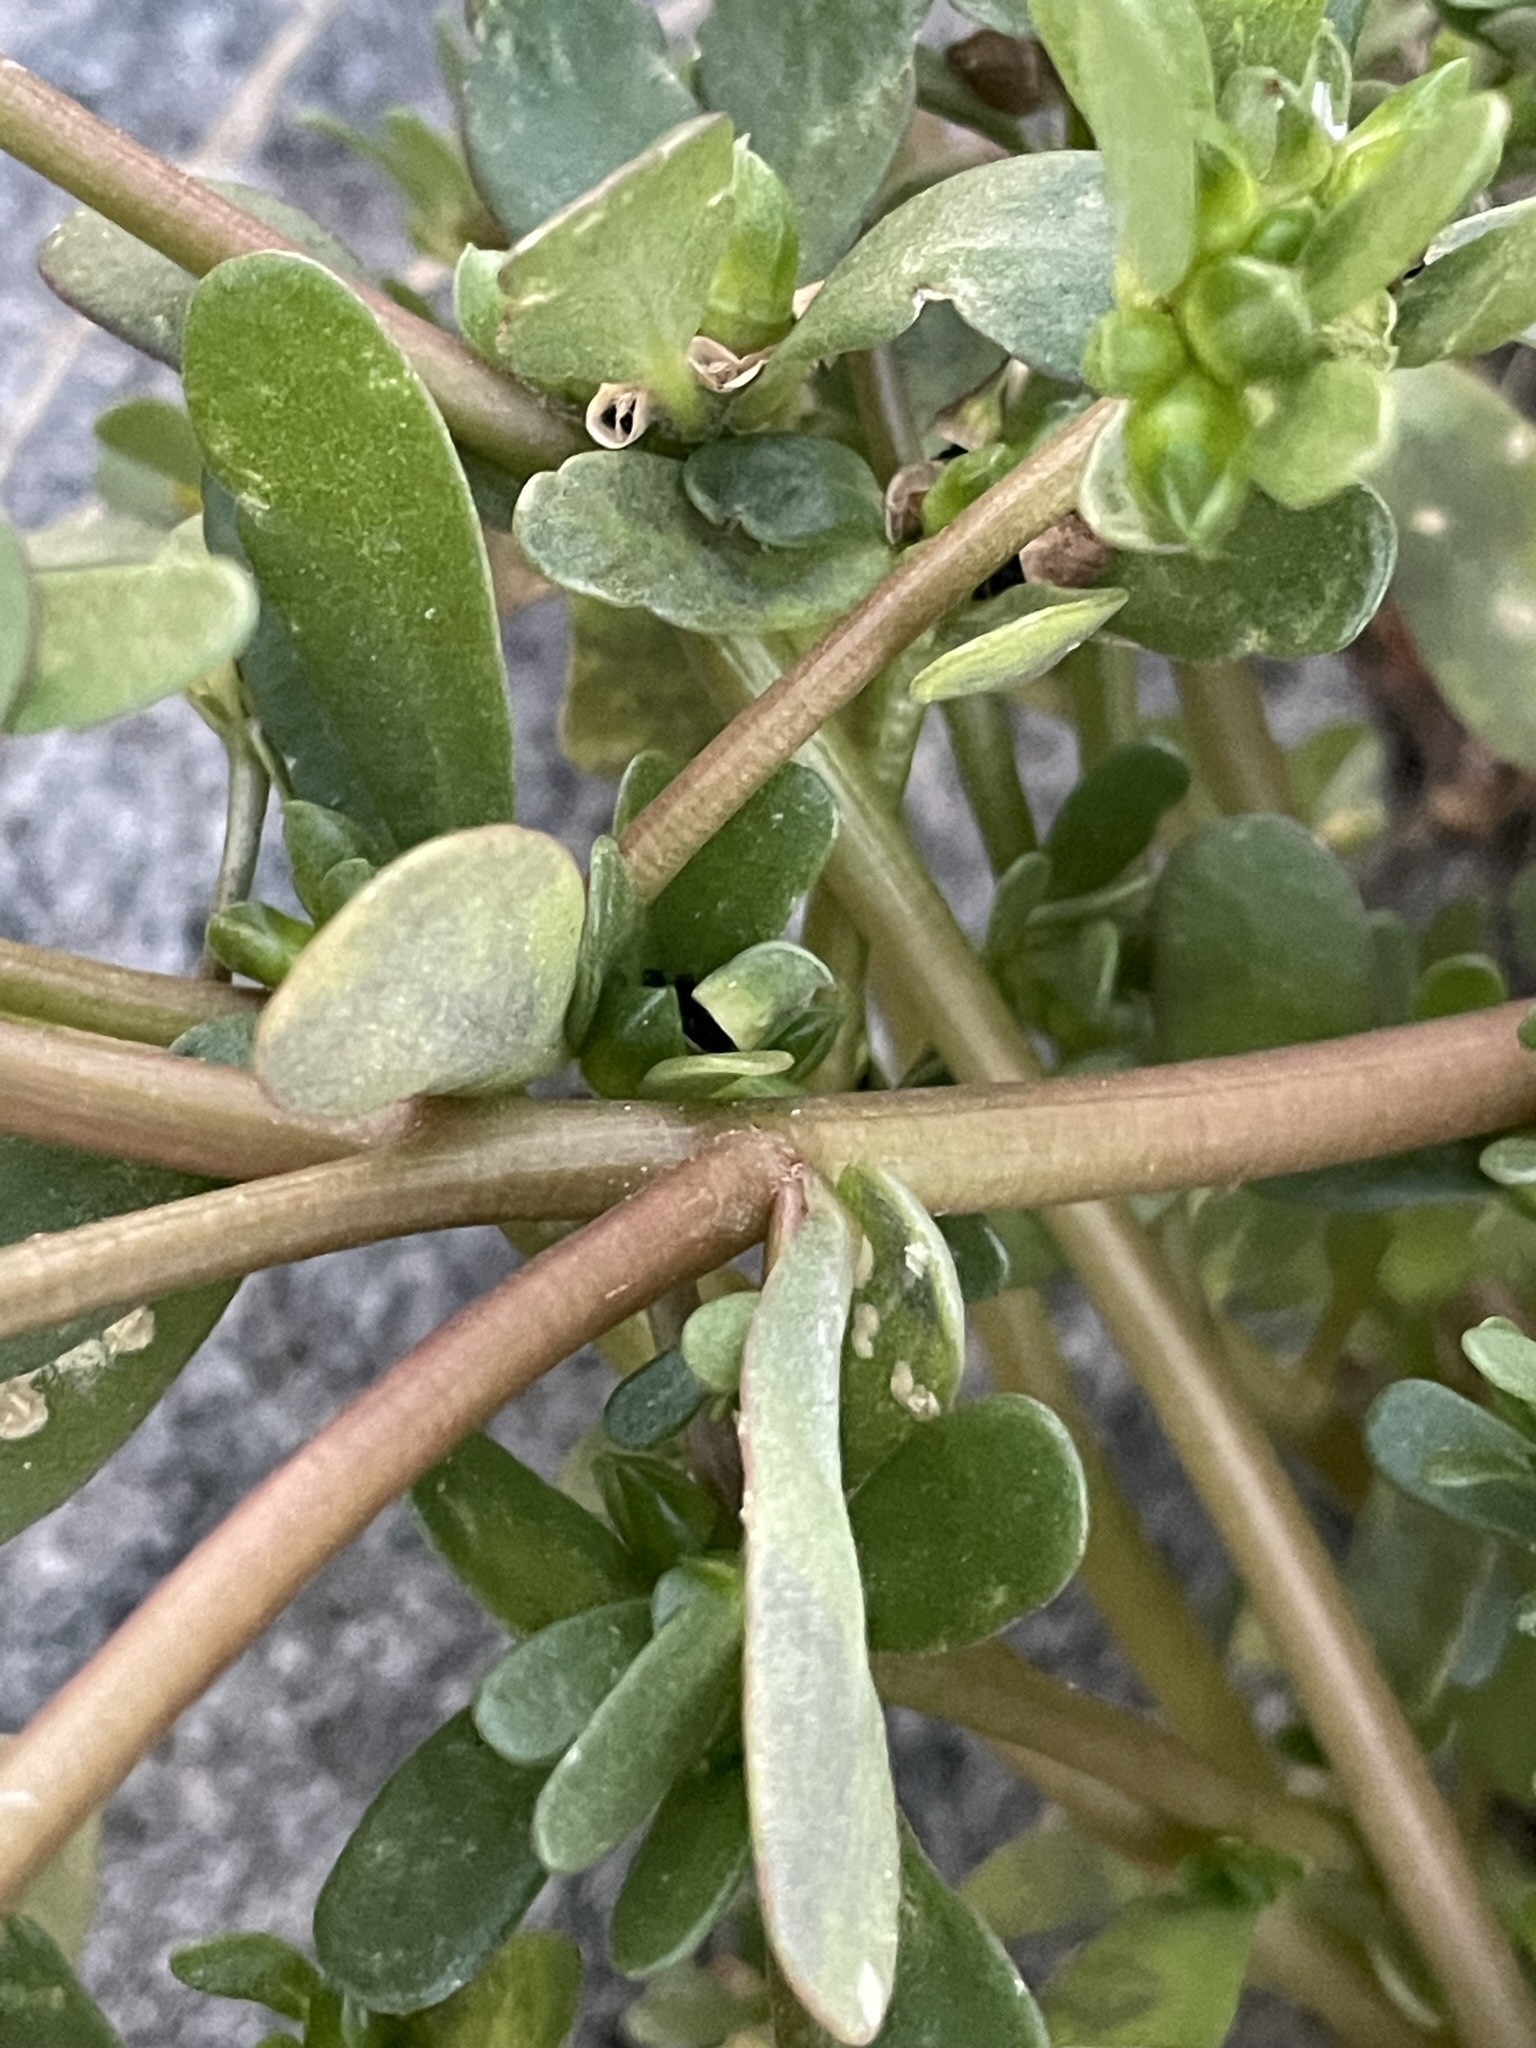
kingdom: Plantae
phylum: Tracheophyta
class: Magnoliopsida
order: Caryophyllales
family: Portulacaceae
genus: Portulaca
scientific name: Portulaca oleracea
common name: Common purslane
